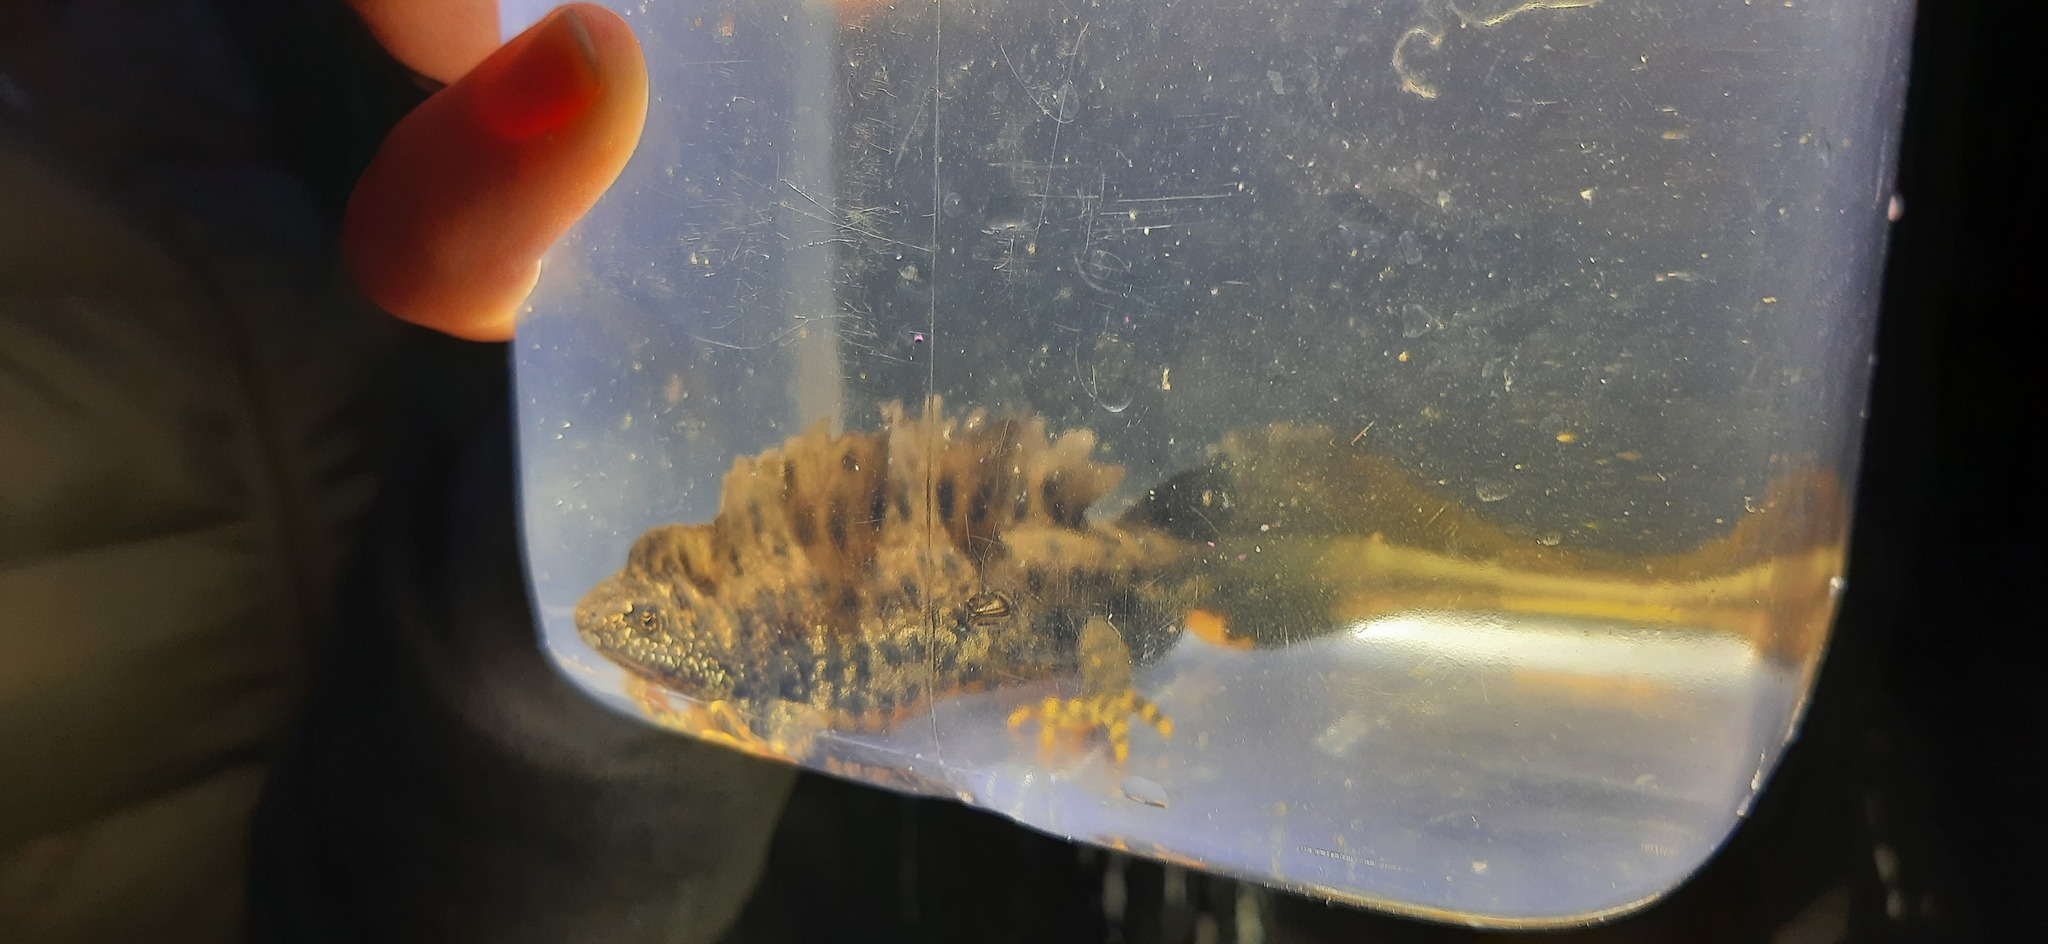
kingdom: Animalia
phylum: Chordata
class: Amphibia
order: Caudata
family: Salamandridae
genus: Triturus
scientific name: Triturus cristatus
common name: Crested newt
